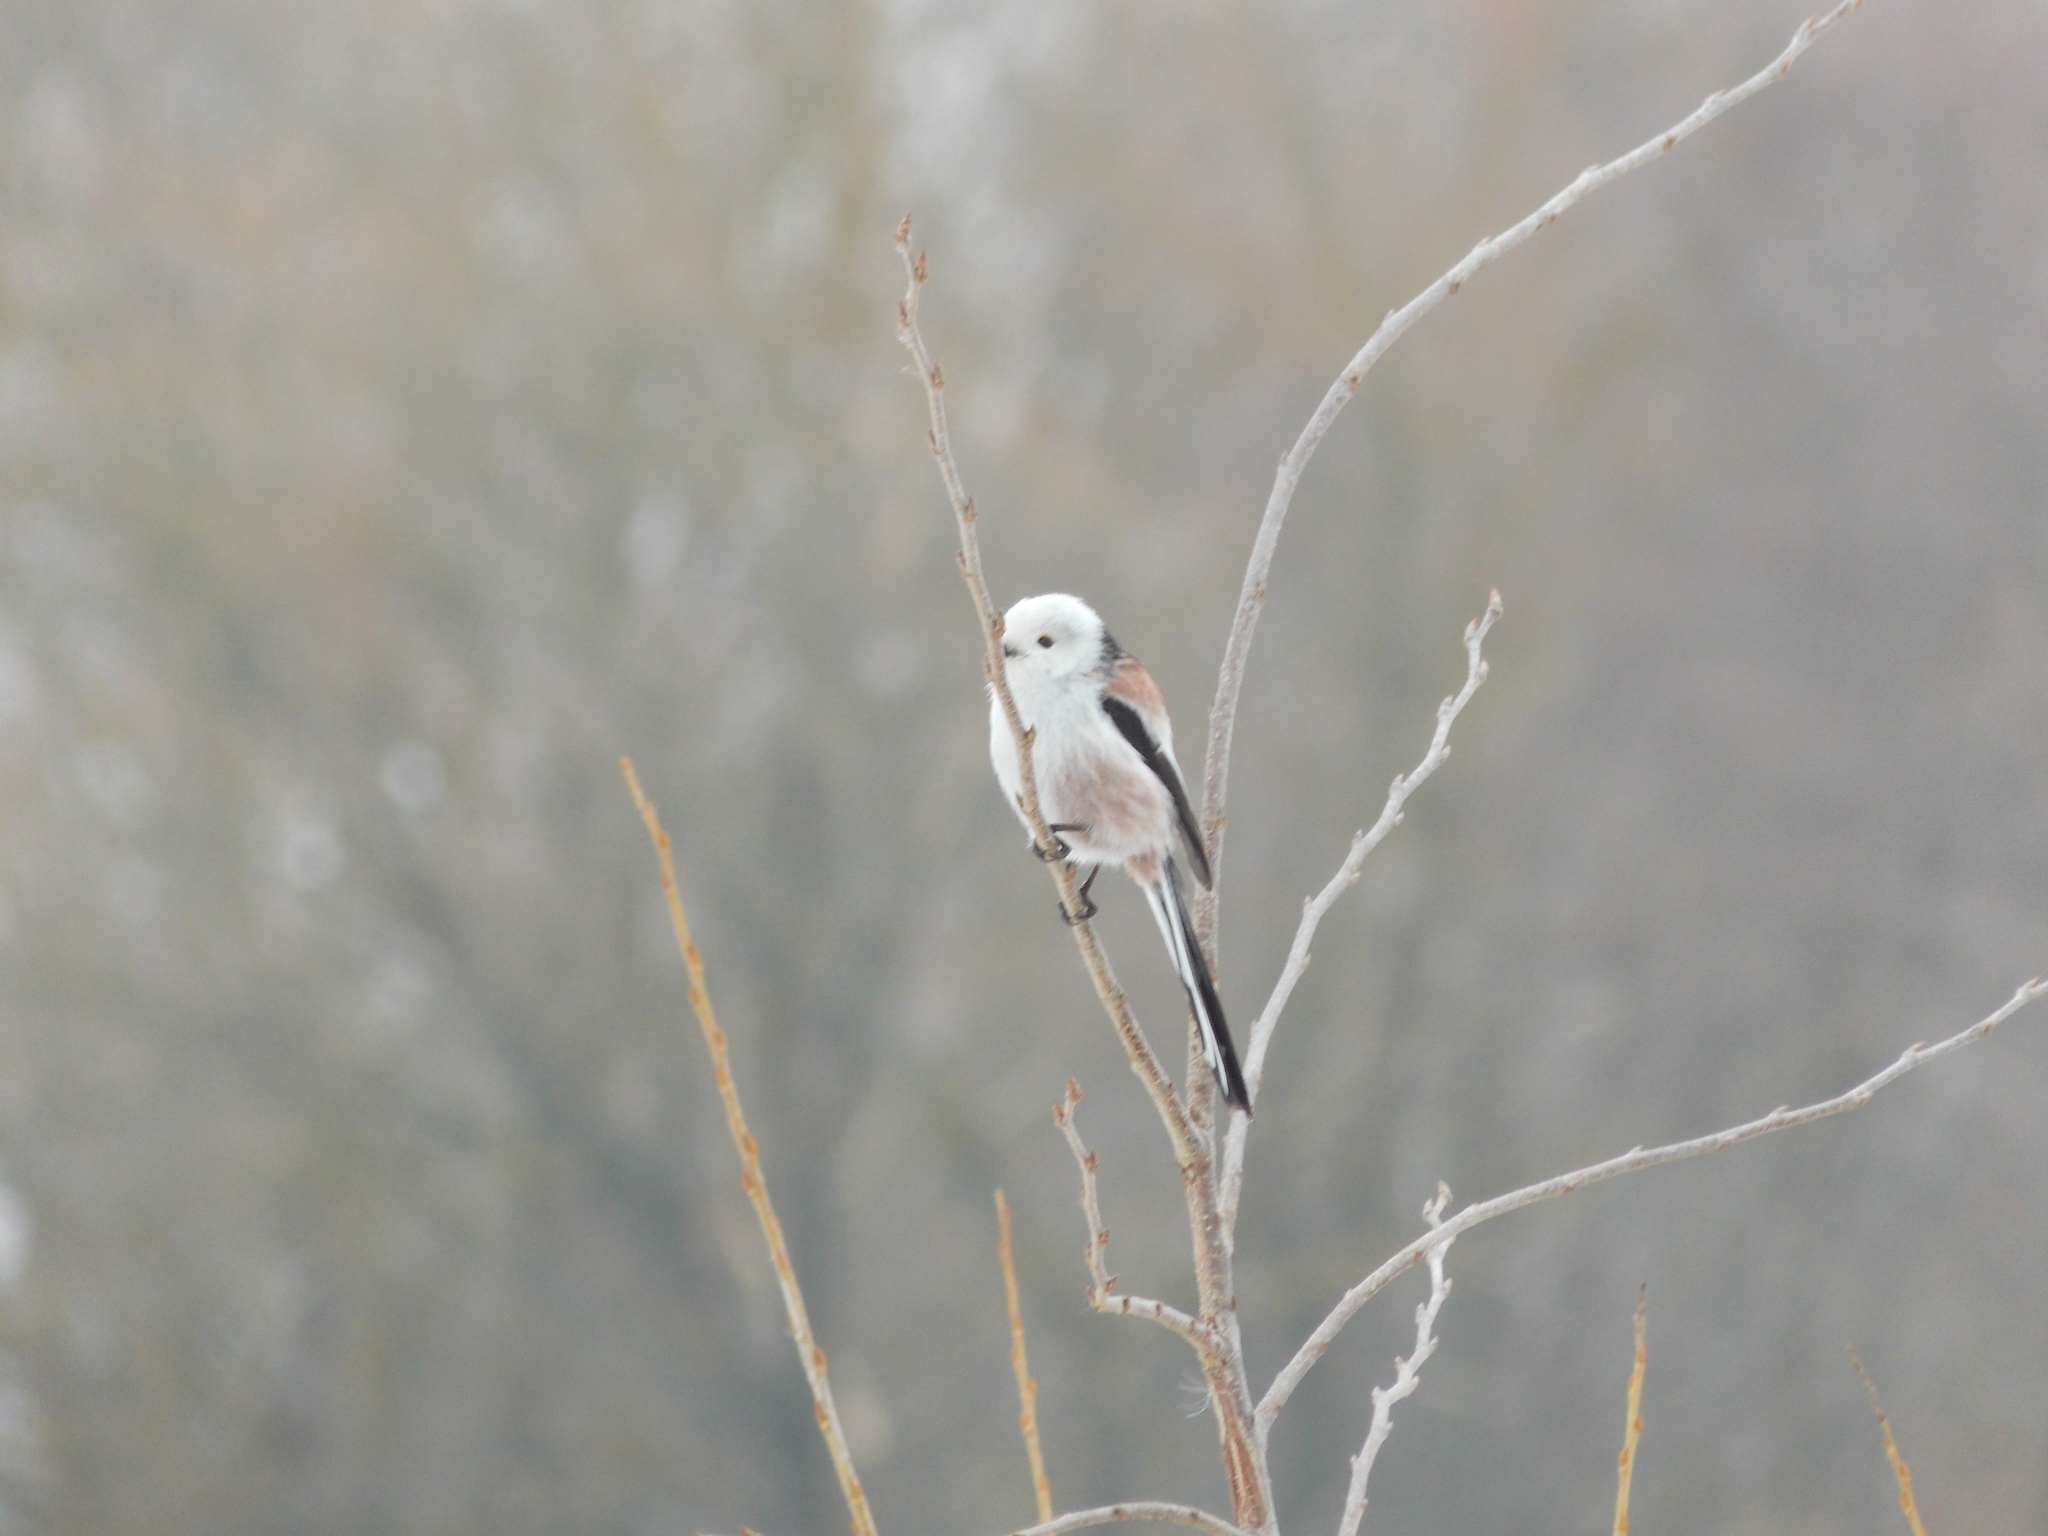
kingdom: Animalia
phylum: Chordata
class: Aves
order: Passeriformes
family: Aegithalidae
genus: Aegithalos
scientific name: Aegithalos caudatus
